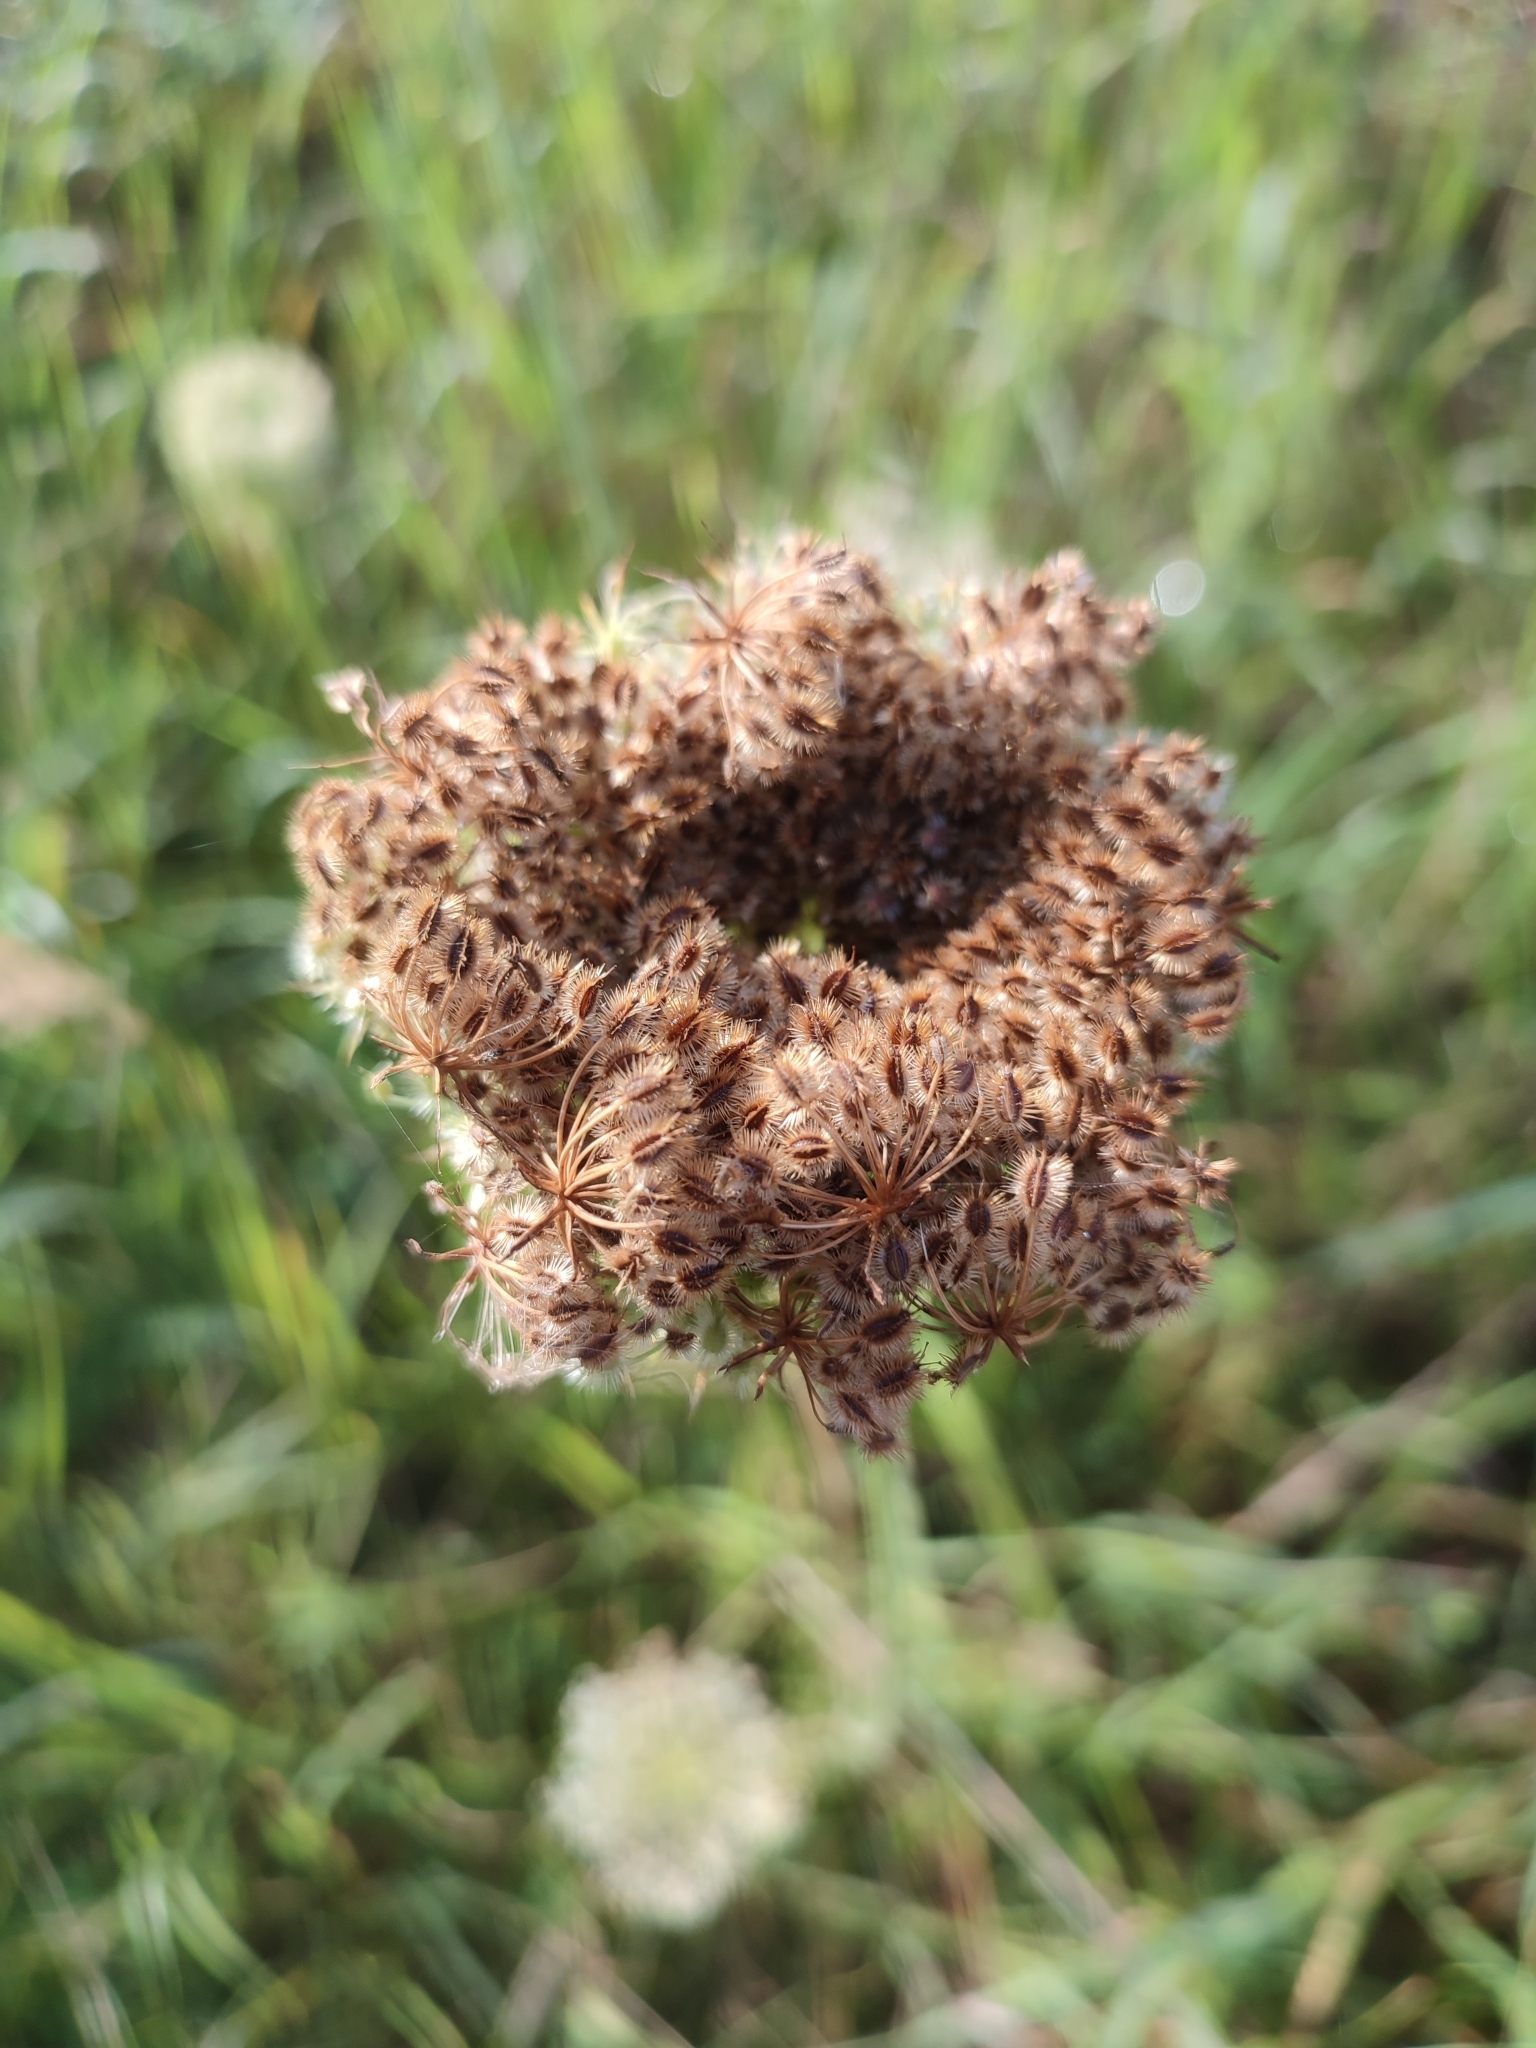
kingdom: Plantae
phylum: Tracheophyta
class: Magnoliopsida
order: Apiales
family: Apiaceae
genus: Daucus
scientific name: Daucus carota
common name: Wild carrot
